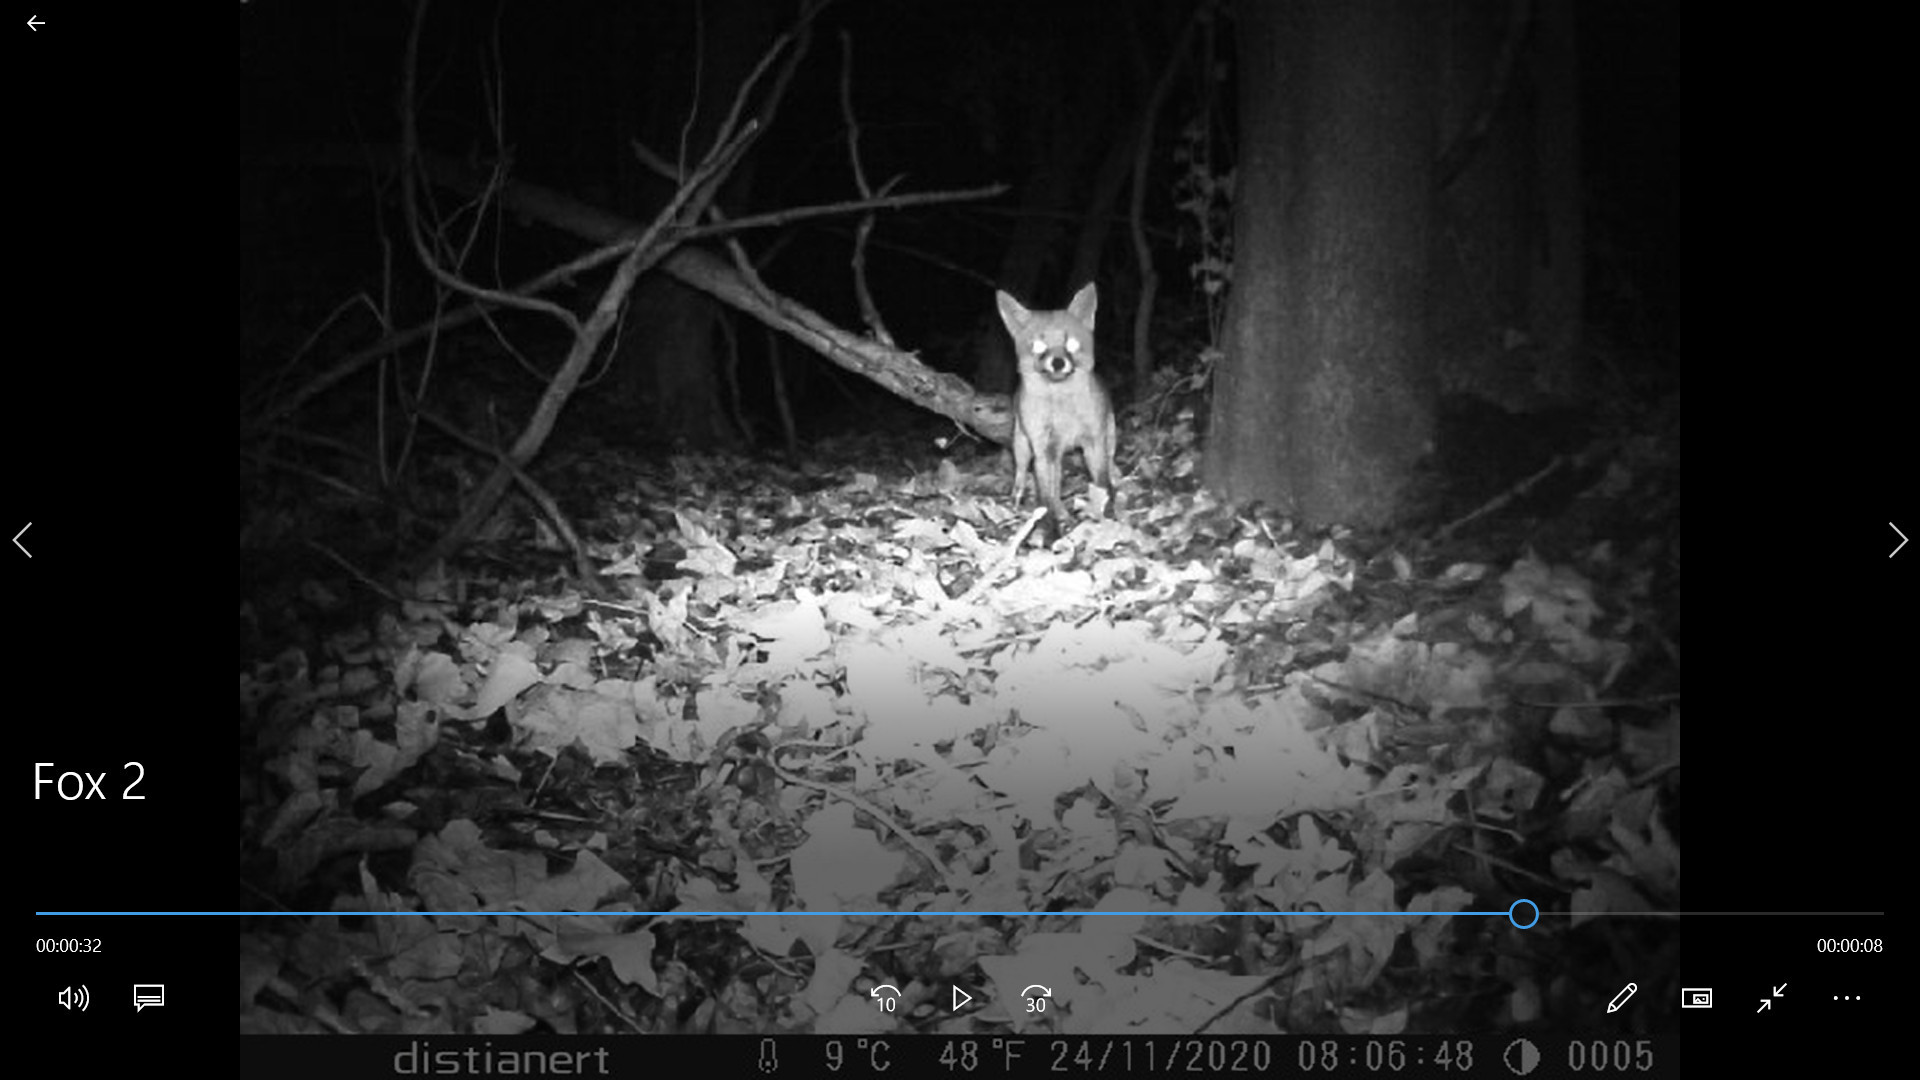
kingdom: Animalia
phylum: Chordata
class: Mammalia
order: Carnivora
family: Canidae
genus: Vulpes
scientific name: Vulpes vulpes
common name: Red fox
